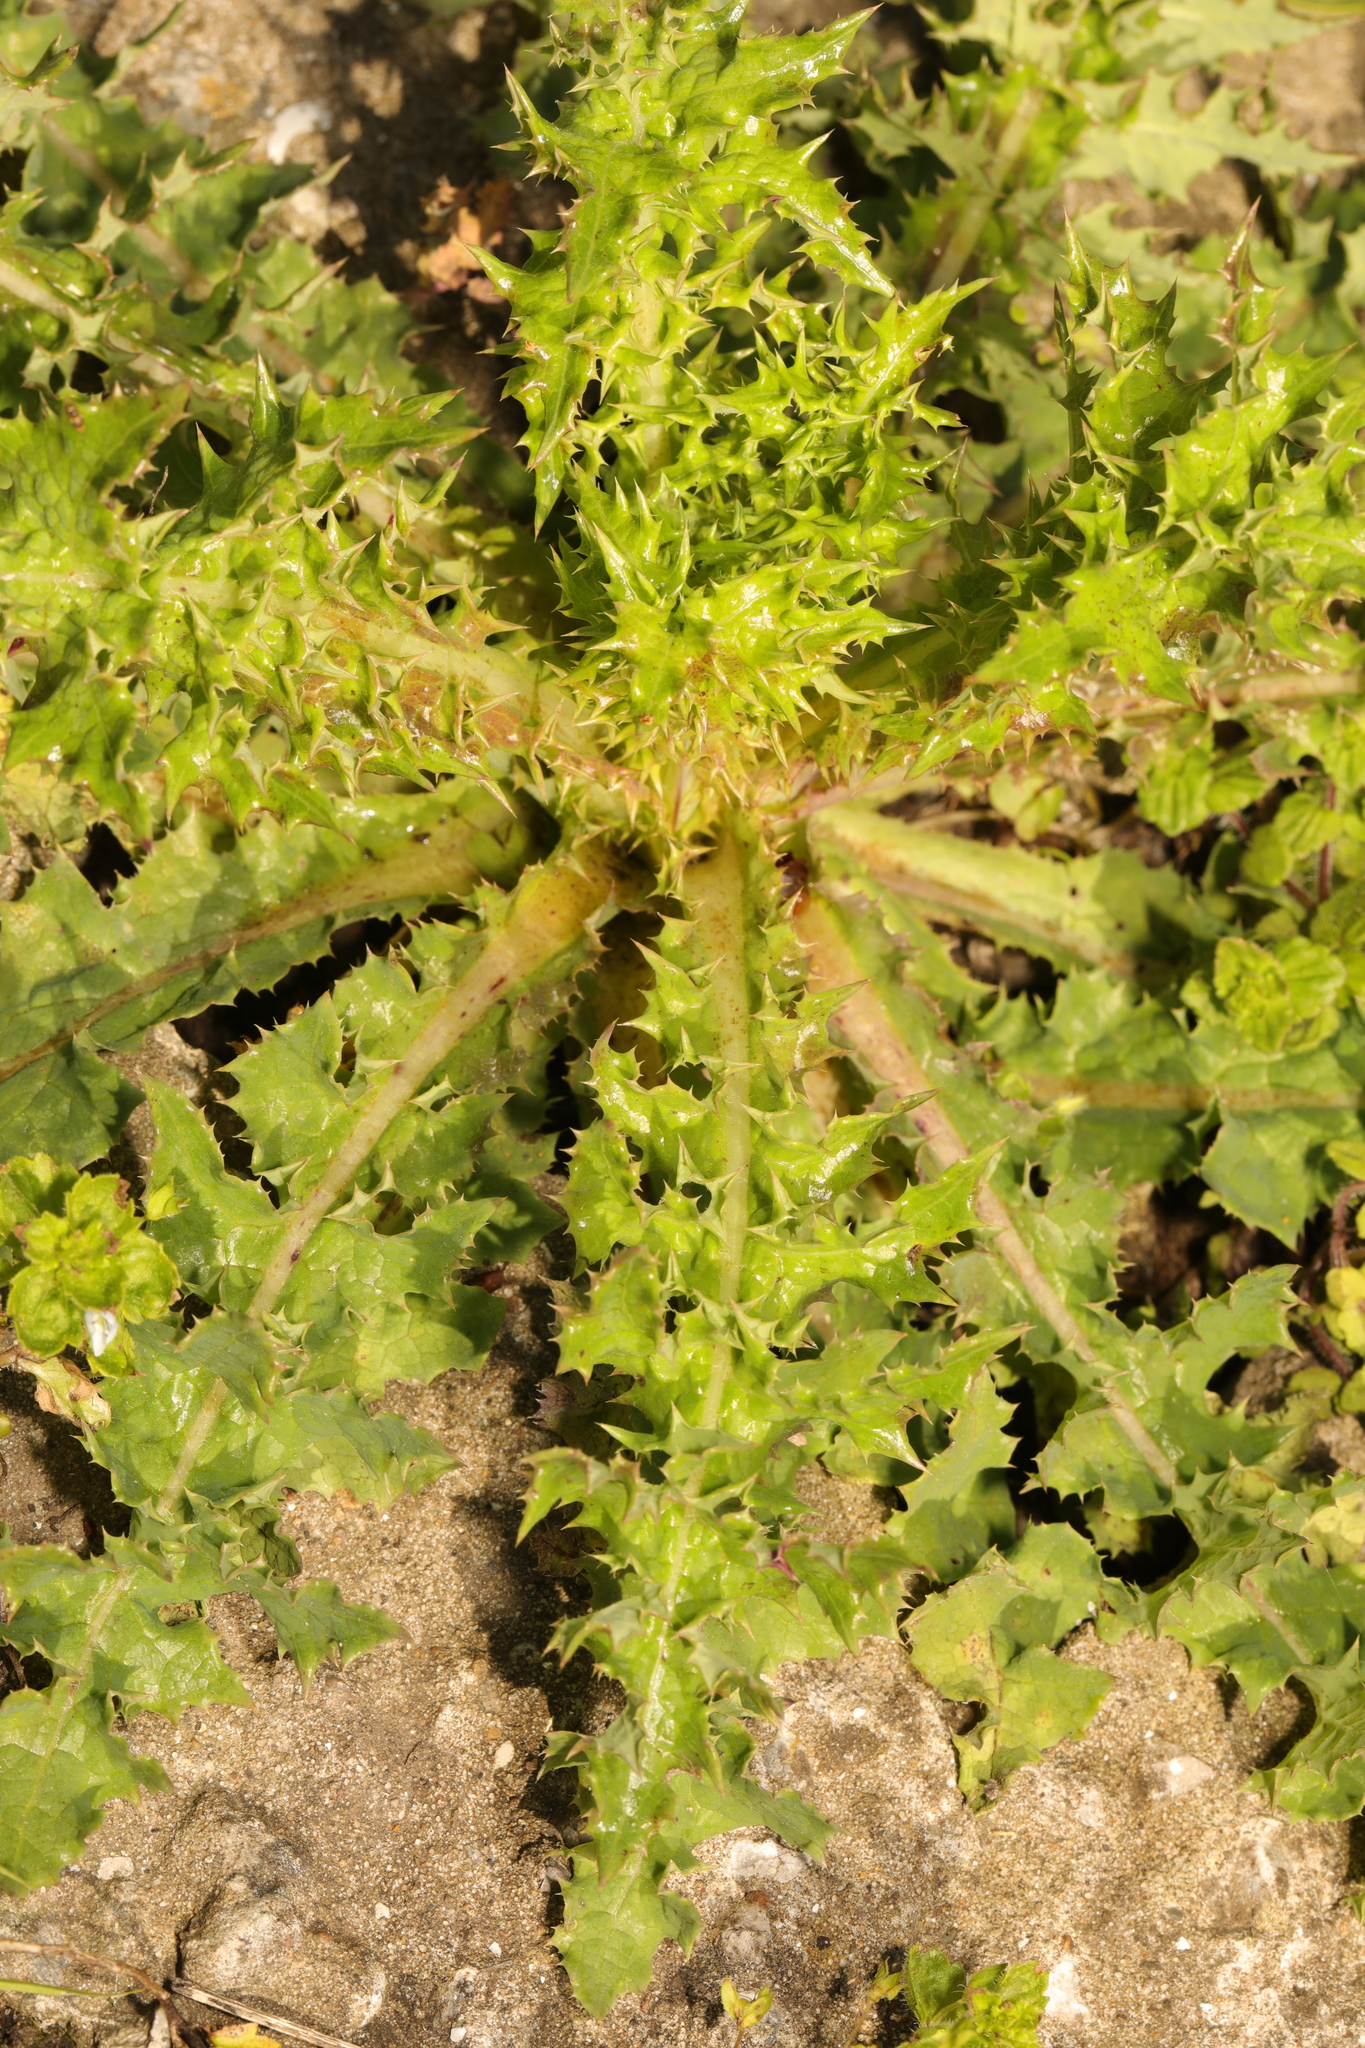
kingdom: Plantae
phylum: Tracheophyta
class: Magnoliopsida
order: Asterales
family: Asteraceae
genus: Sonchus
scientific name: Sonchus asper
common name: Prickly sow-thistle
